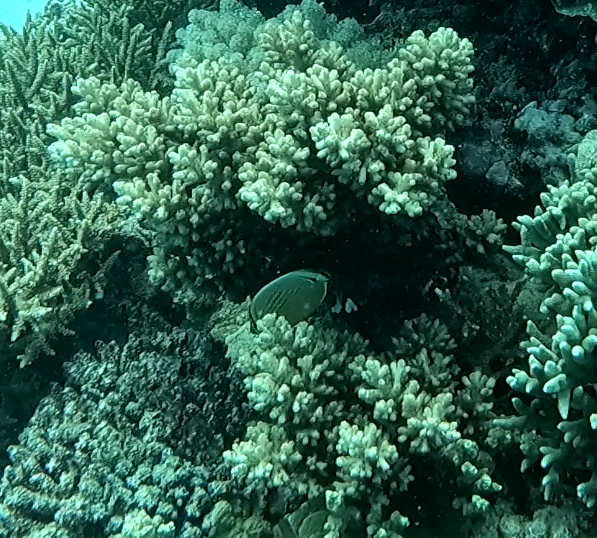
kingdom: Animalia
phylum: Chordata
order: Perciformes
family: Chaetodontidae
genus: Chaetodon
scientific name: Chaetodon lunulatus
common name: Redfin butterflyfish
